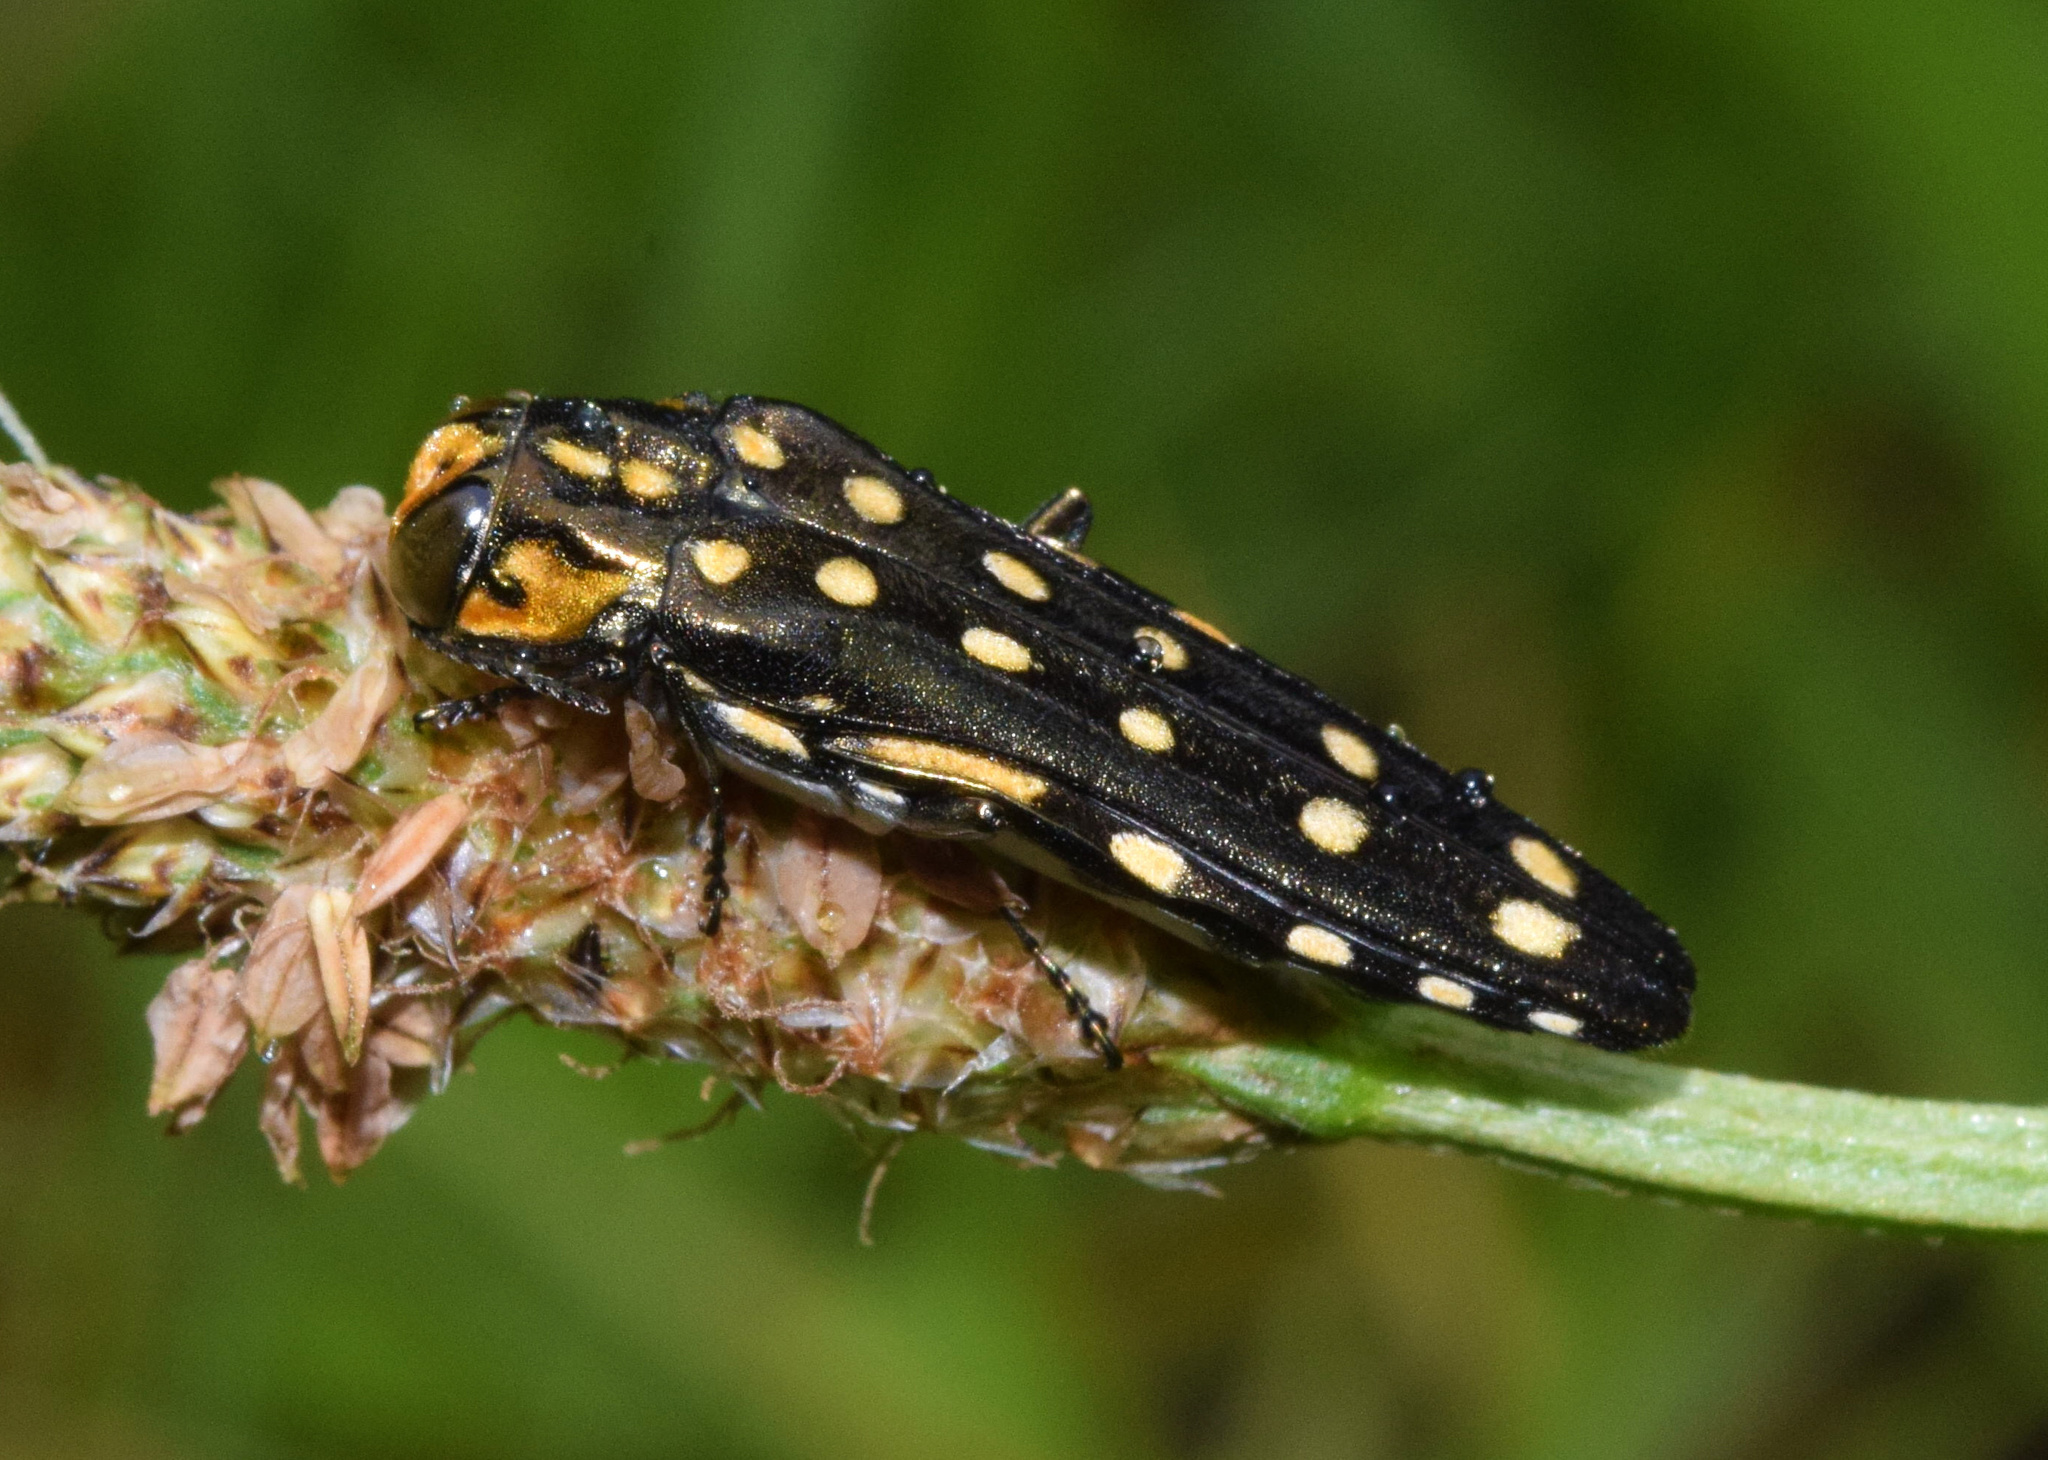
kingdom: Animalia
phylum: Arthropoda
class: Insecta
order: Coleoptera
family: Buprestidae
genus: Agrilus
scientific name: Agrilus grandis
